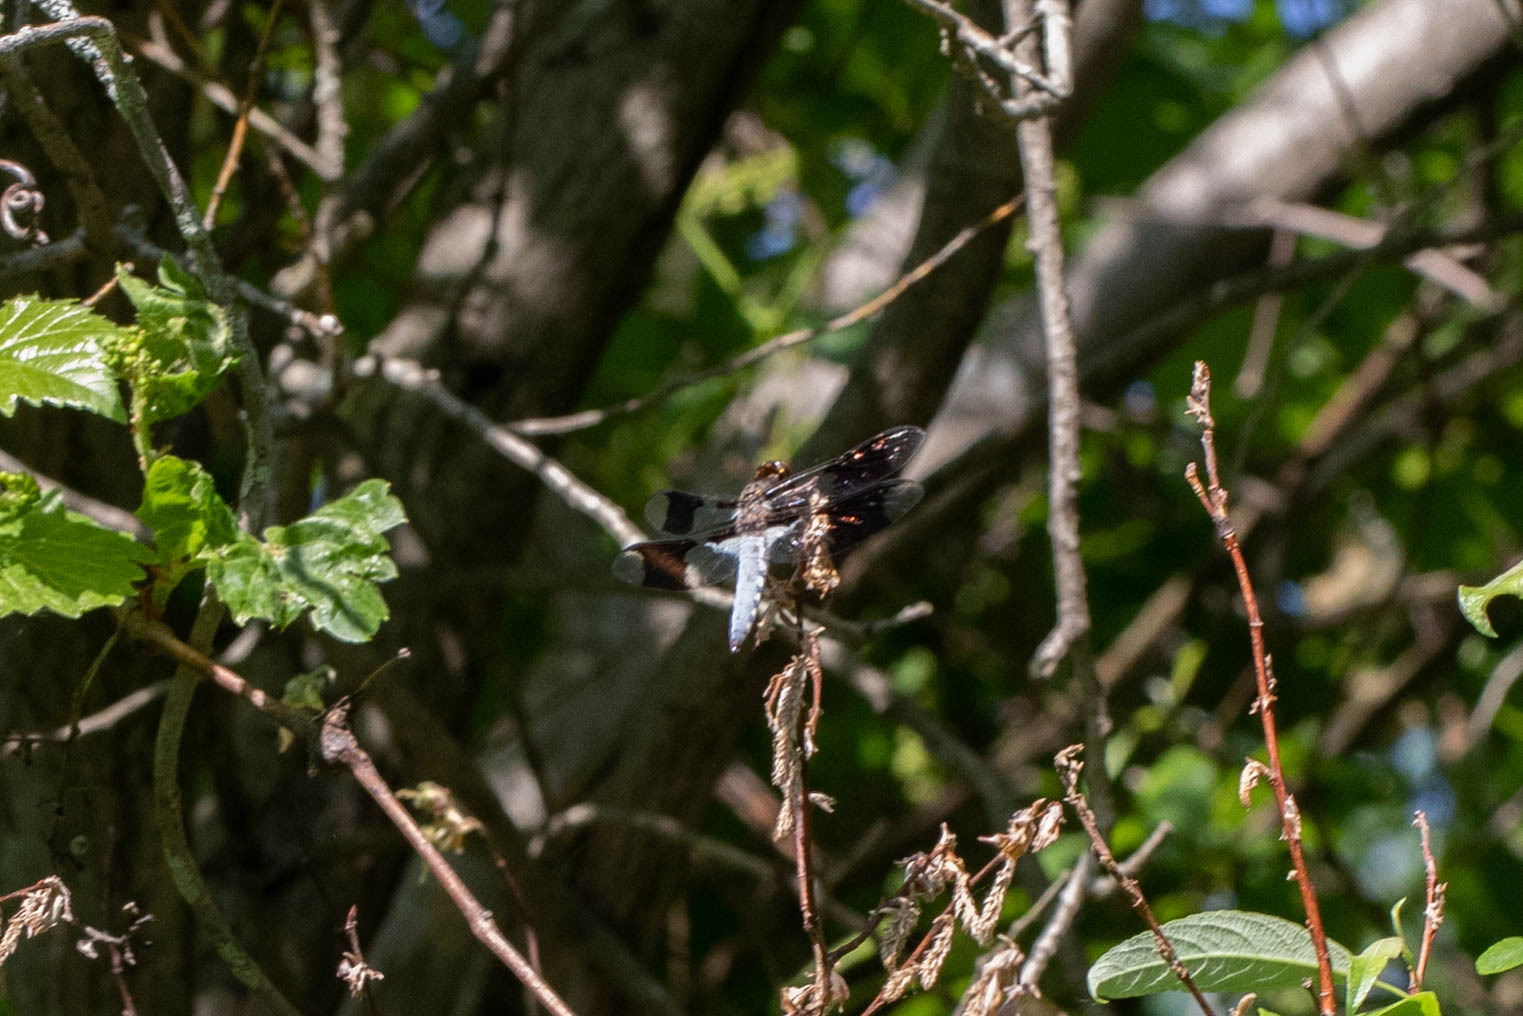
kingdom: Animalia
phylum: Arthropoda
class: Insecta
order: Odonata
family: Libellulidae
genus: Plathemis
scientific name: Plathemis lydia
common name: Common whitetail
